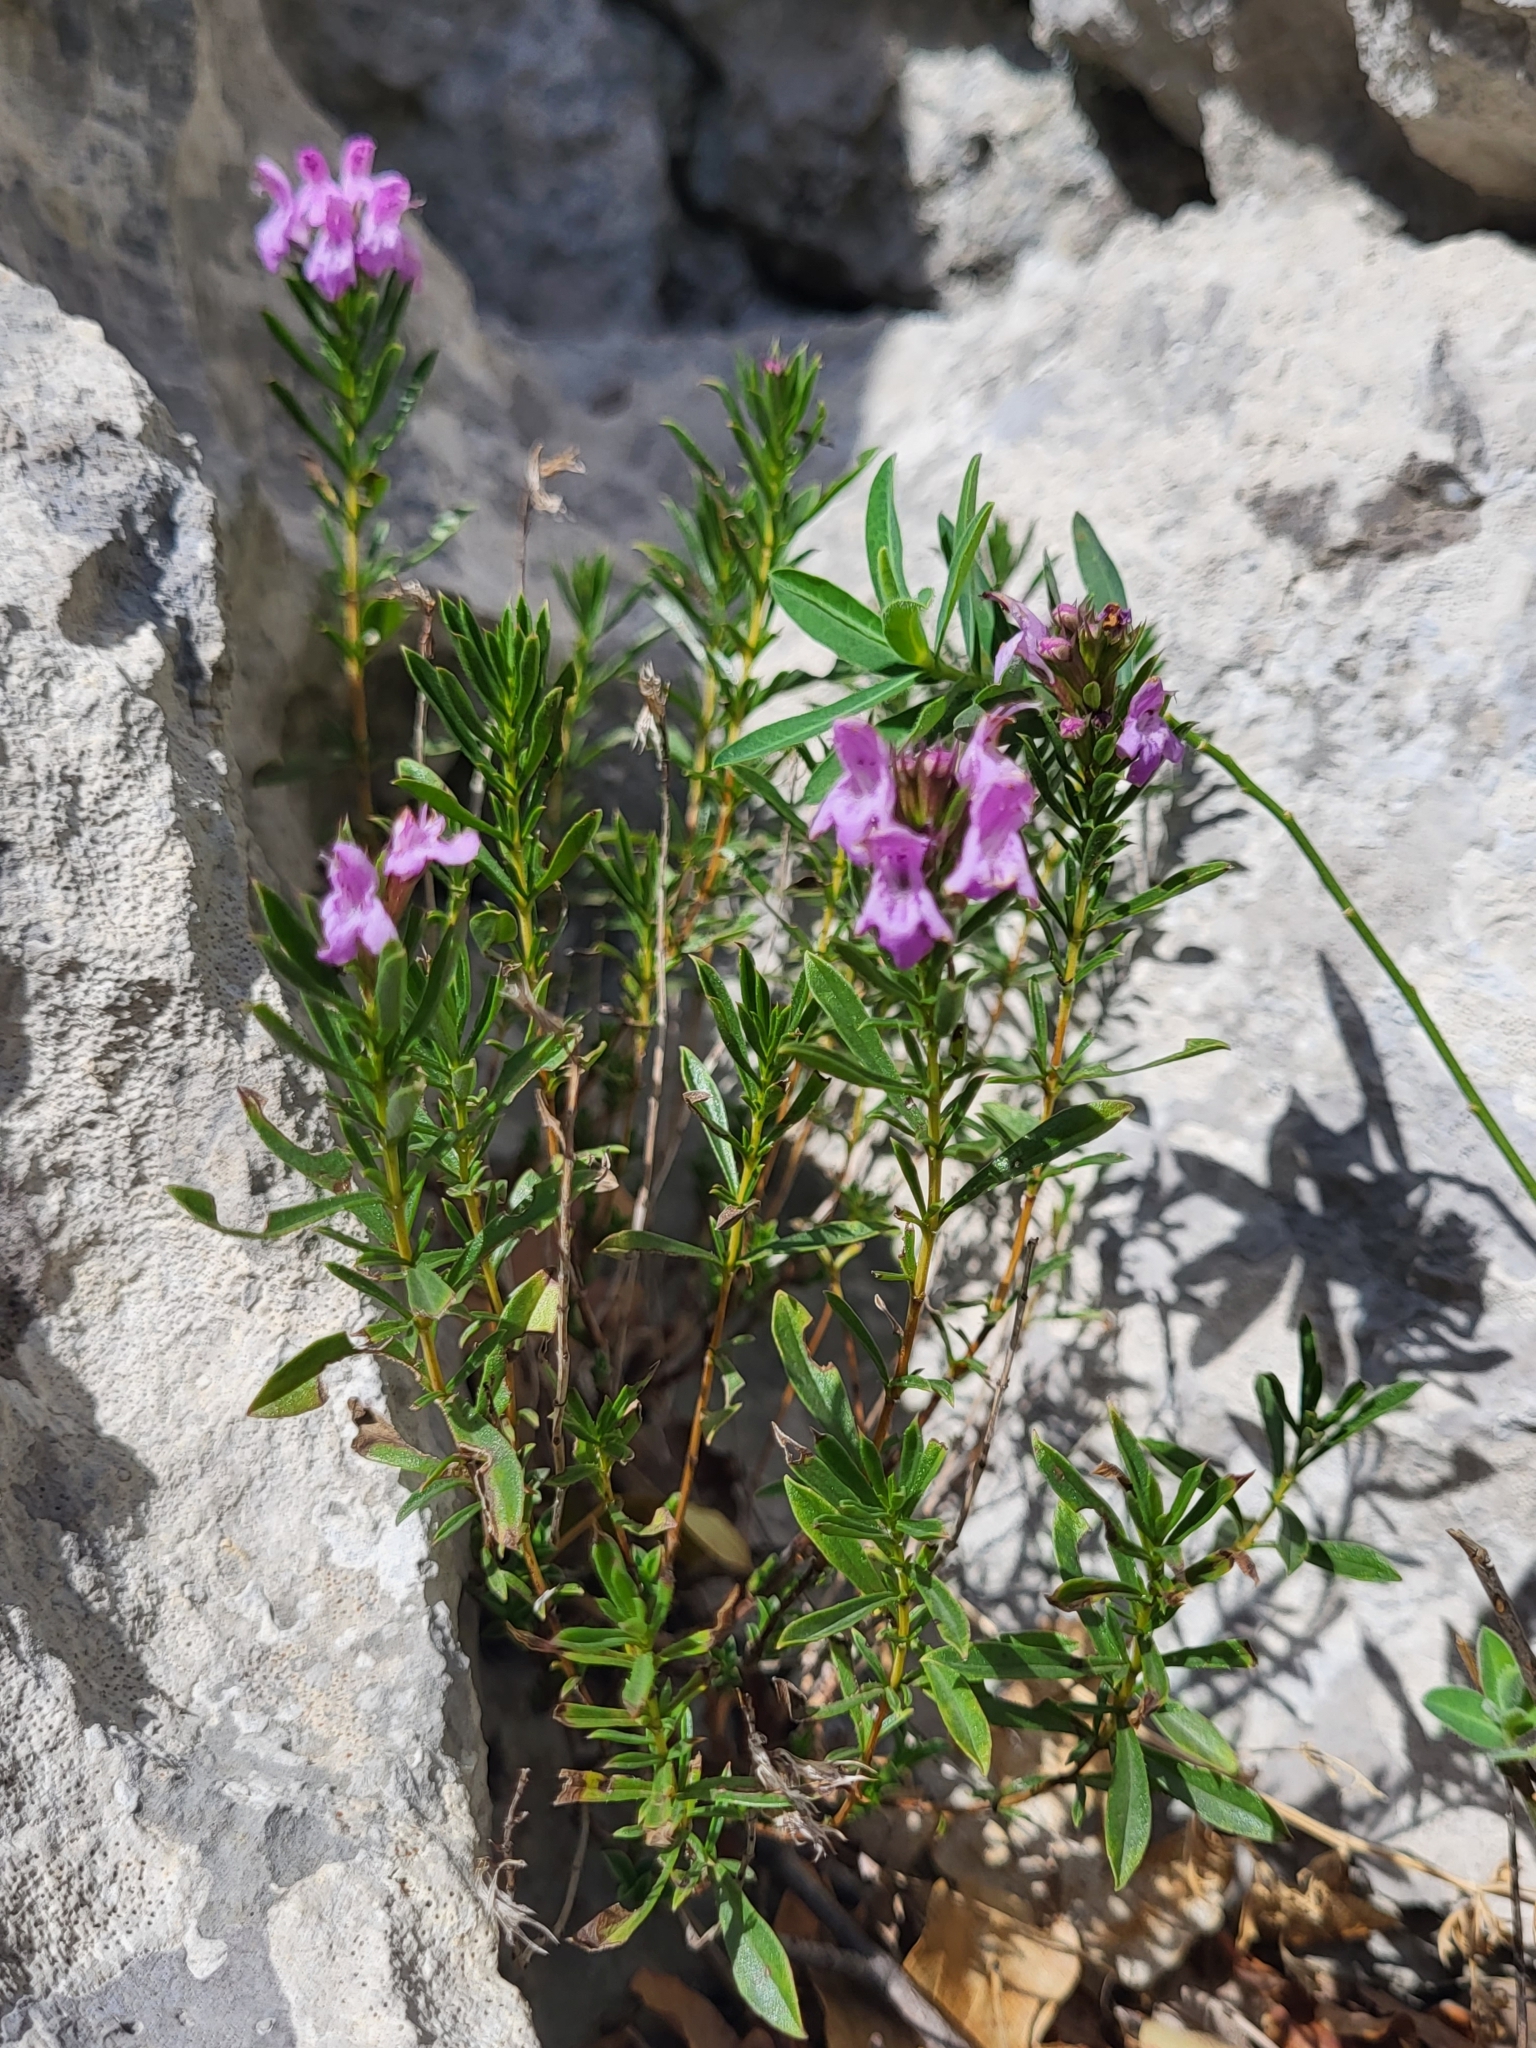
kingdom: Plantae
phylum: Tracheophyta
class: Magnoliopsida
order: Lamiales
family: Lamiaceae
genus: Satureja
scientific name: Satureja subspicata
